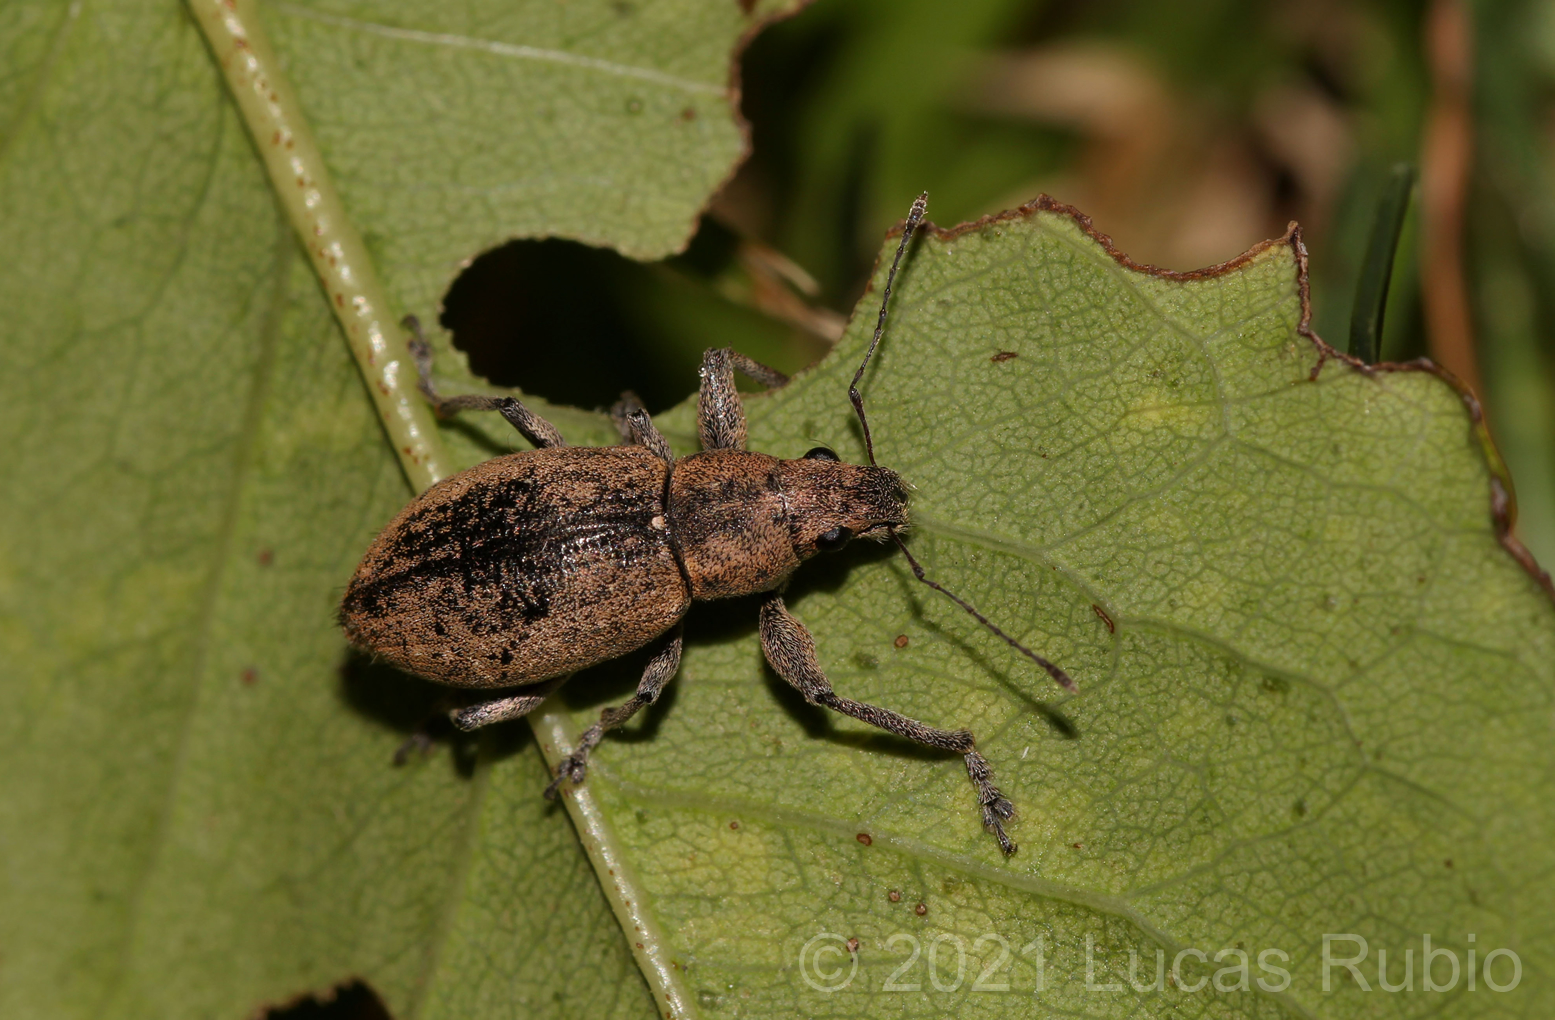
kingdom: Animalia
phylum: Arthropoda
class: Insecta
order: Coleoptera
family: Curculionidae
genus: Naupactus
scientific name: Naupactus versatilis
